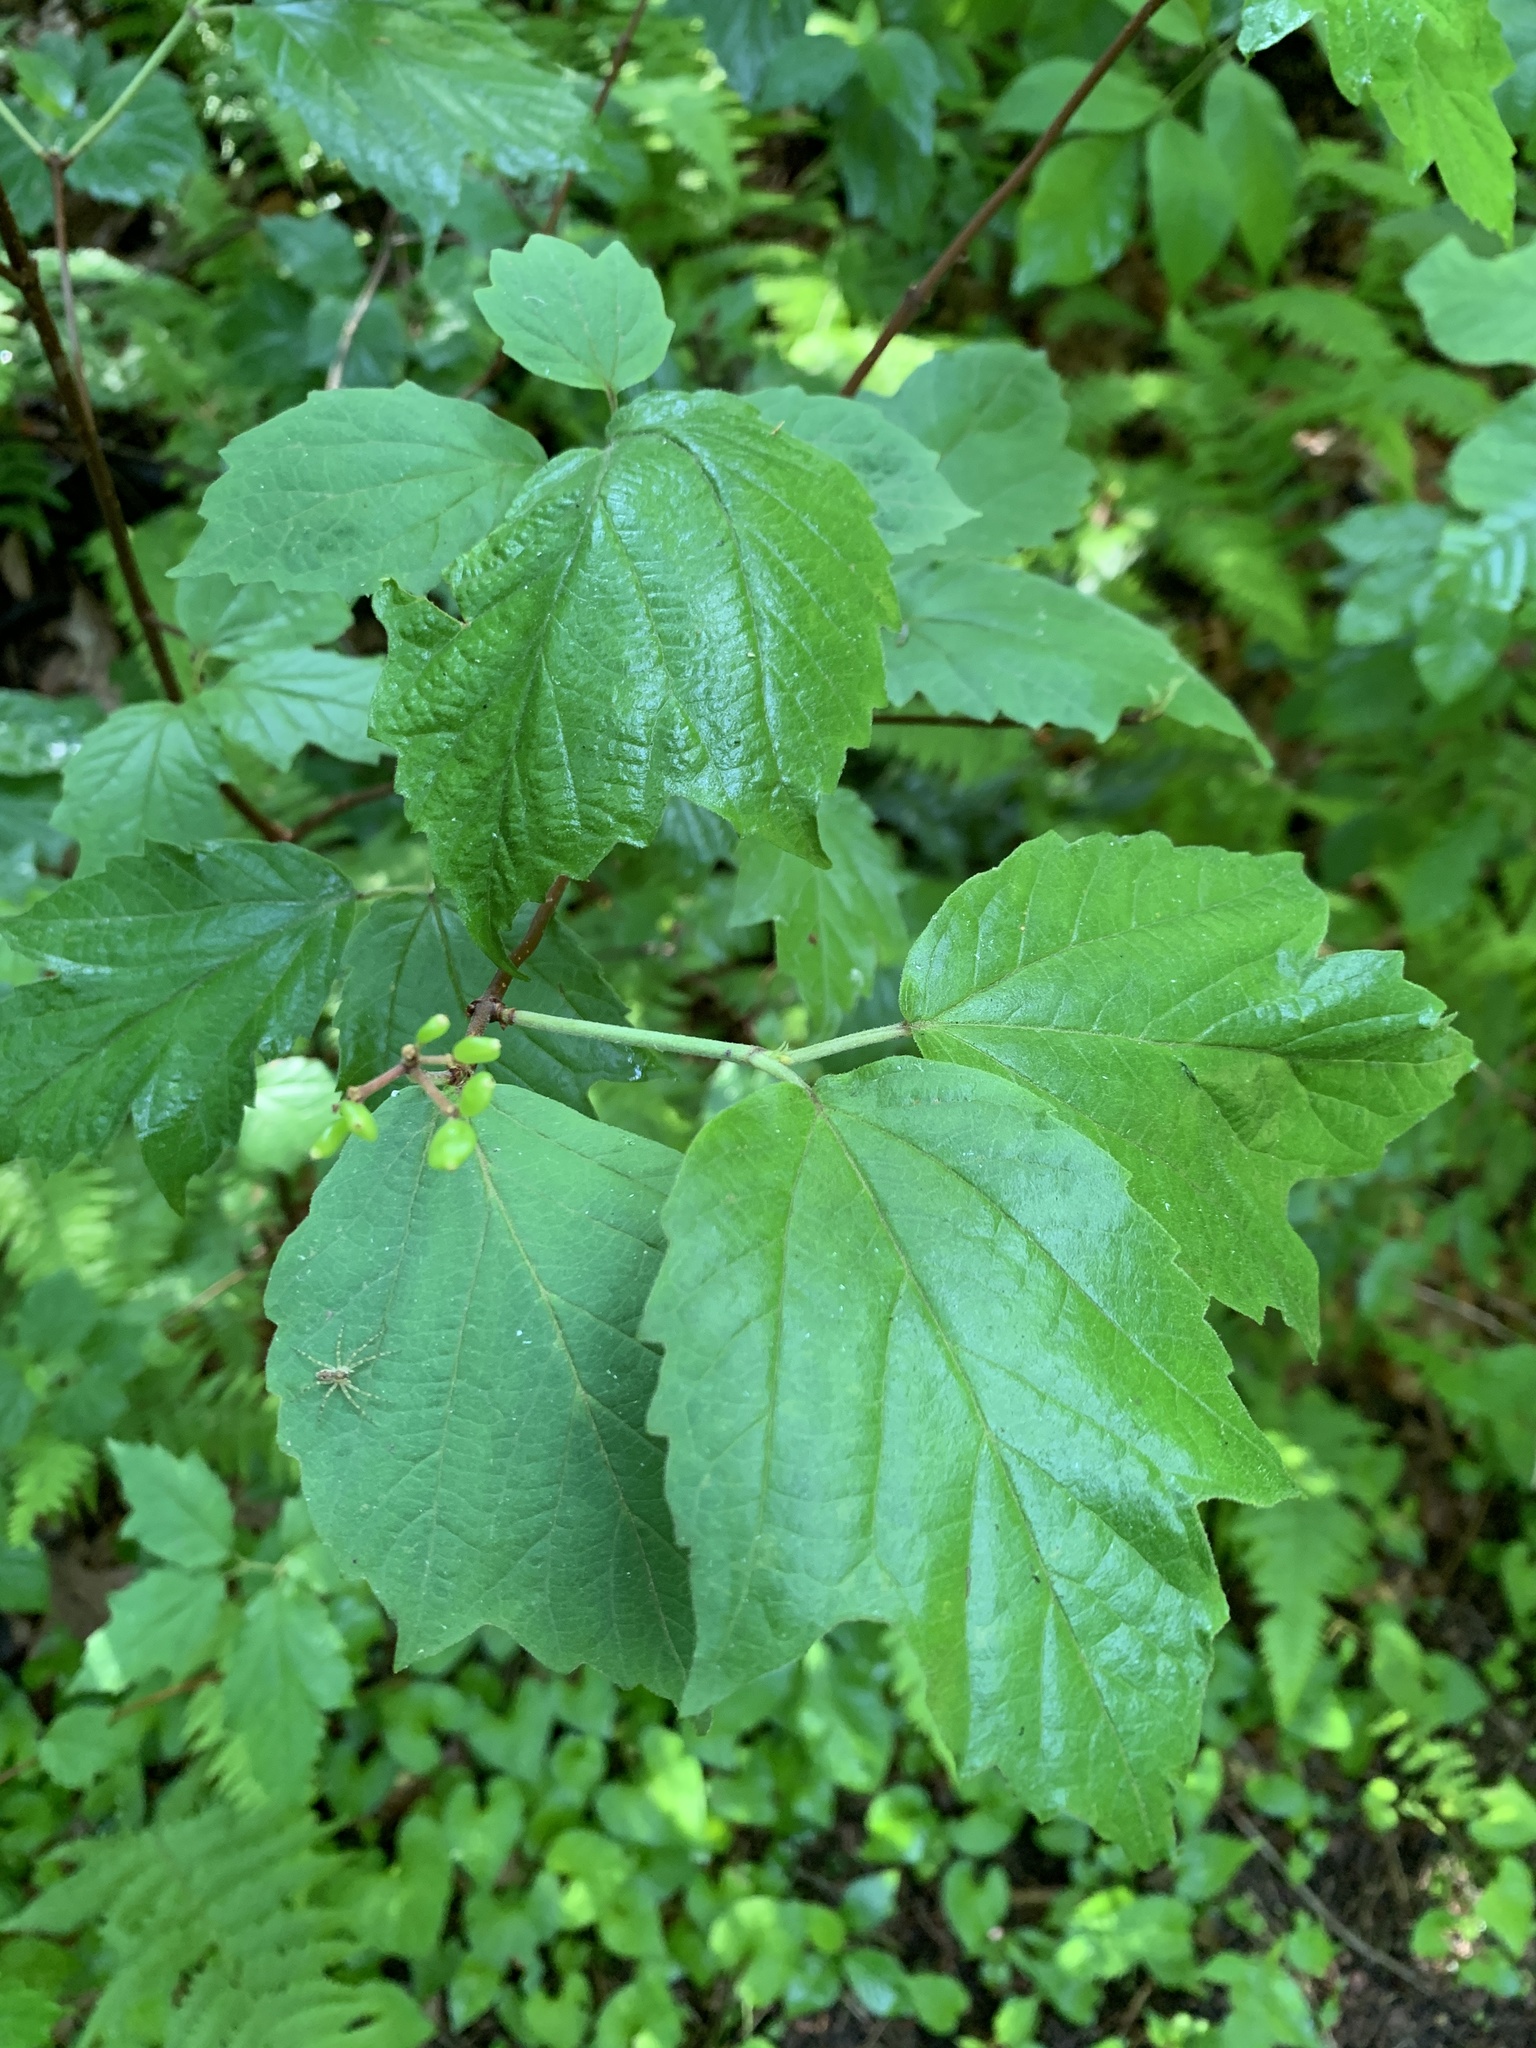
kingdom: Plantae
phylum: Tracheophyta
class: Magnoliopsida
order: Dipsacales
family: Viburnaceae
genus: Viburnum
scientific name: Viburnum acerifolium
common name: Dockmackie
